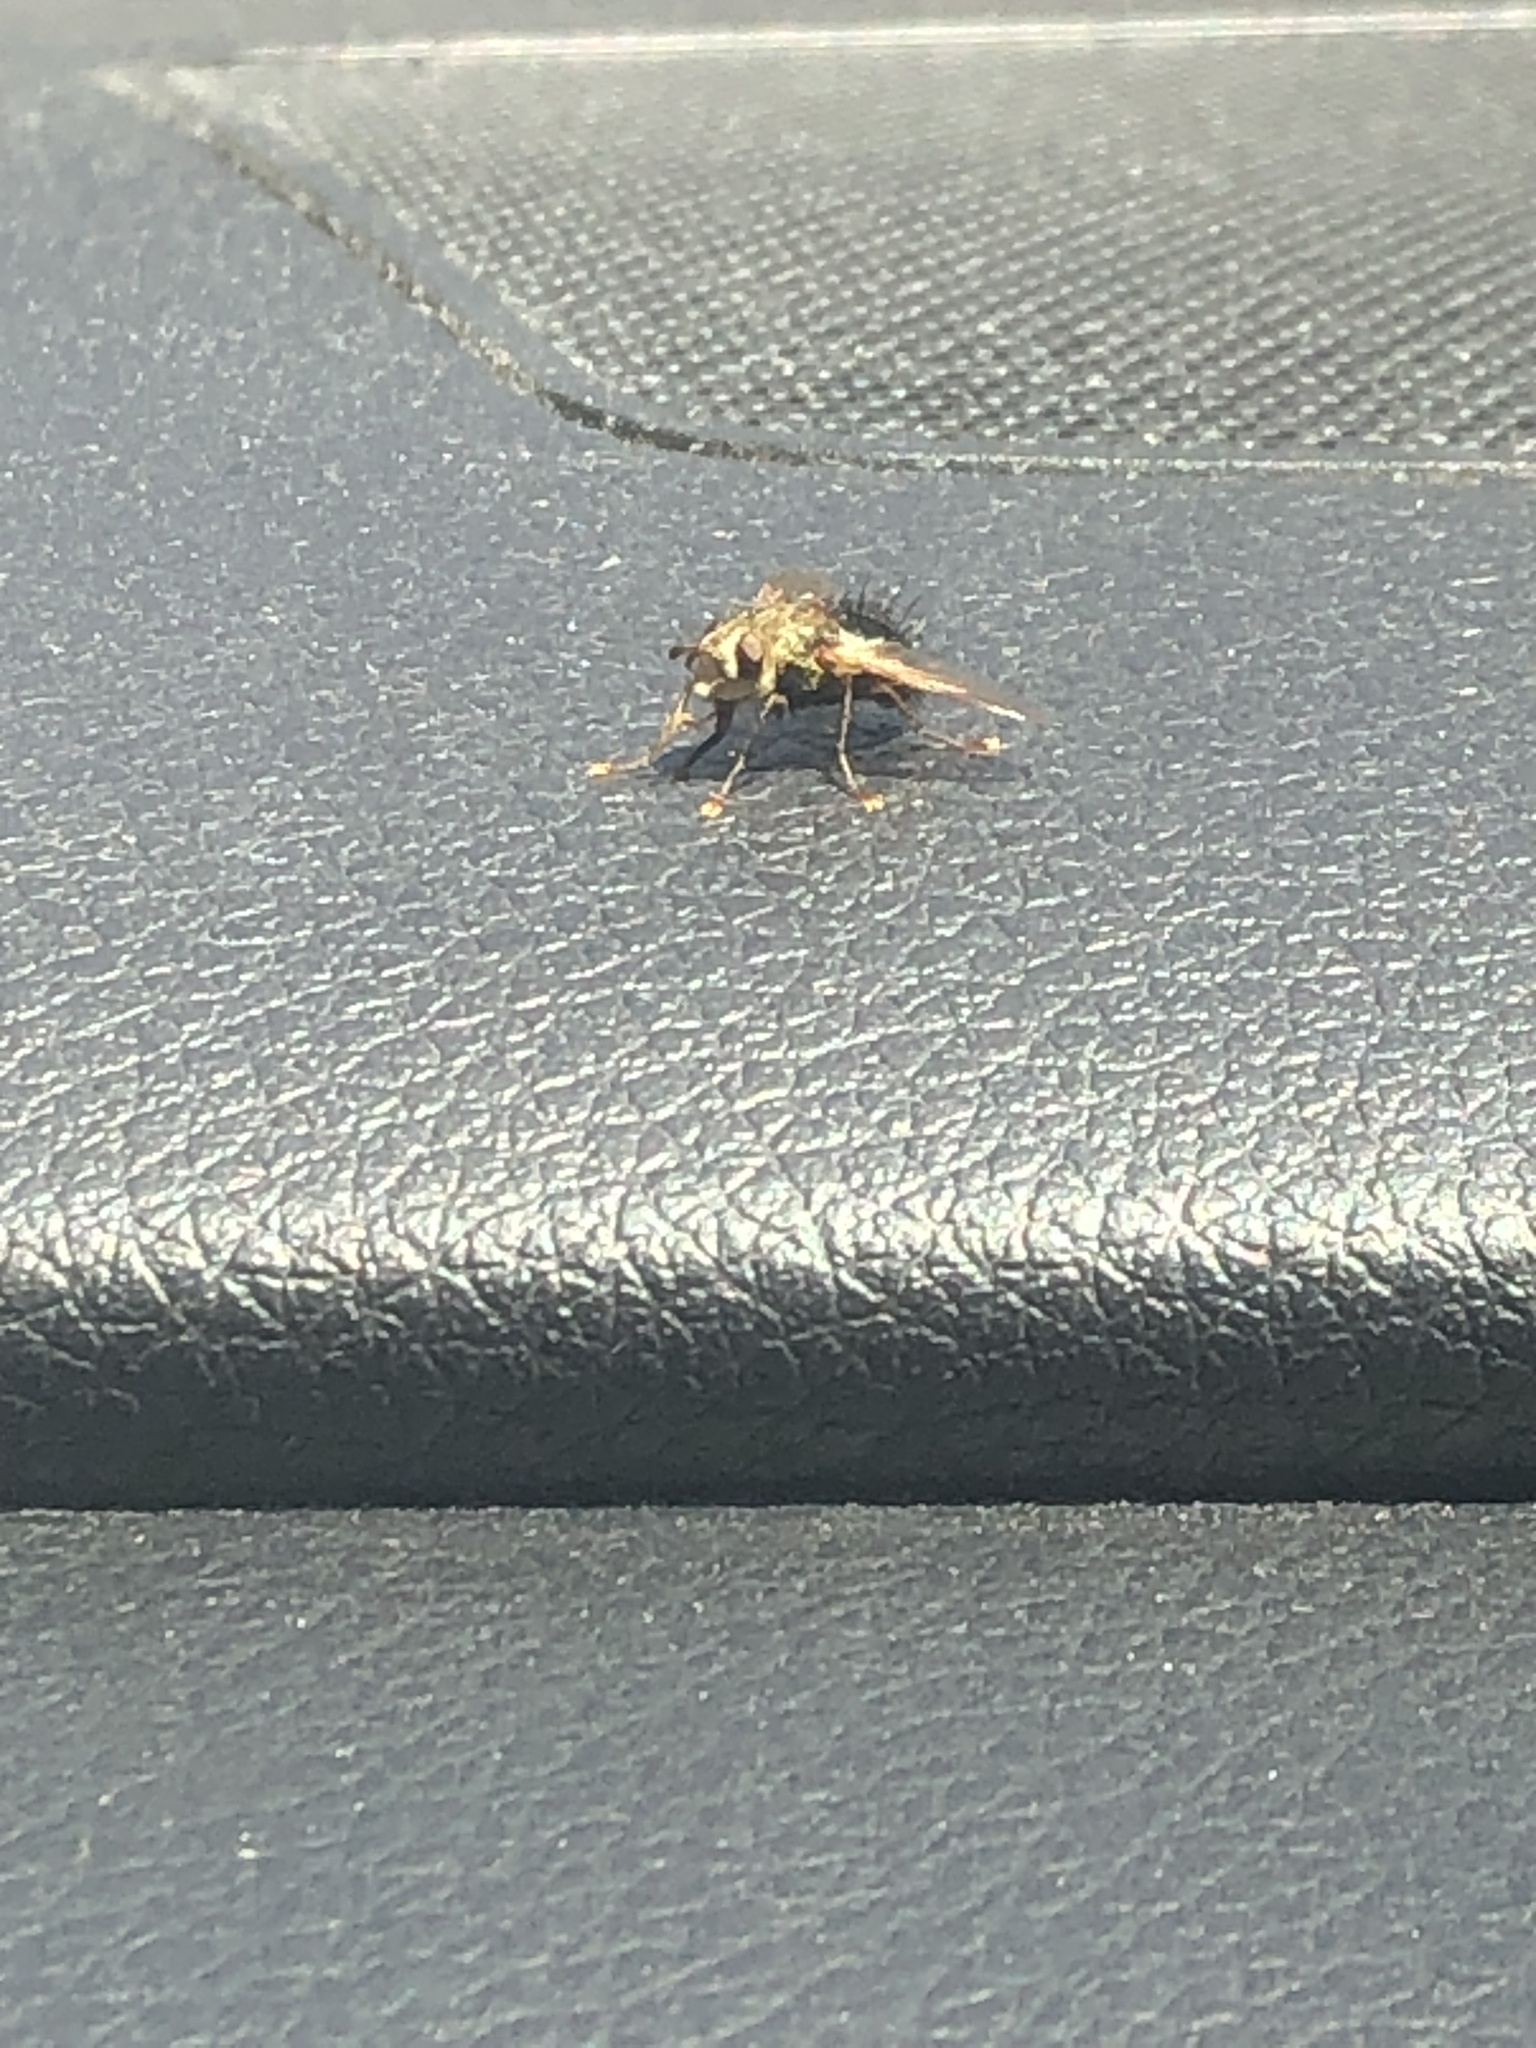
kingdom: Animalia
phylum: Arthropoda
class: Insecta
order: Diptera
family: Tachinidae
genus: Epalpus
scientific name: Epalpus signifer
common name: Early tachinid fly
